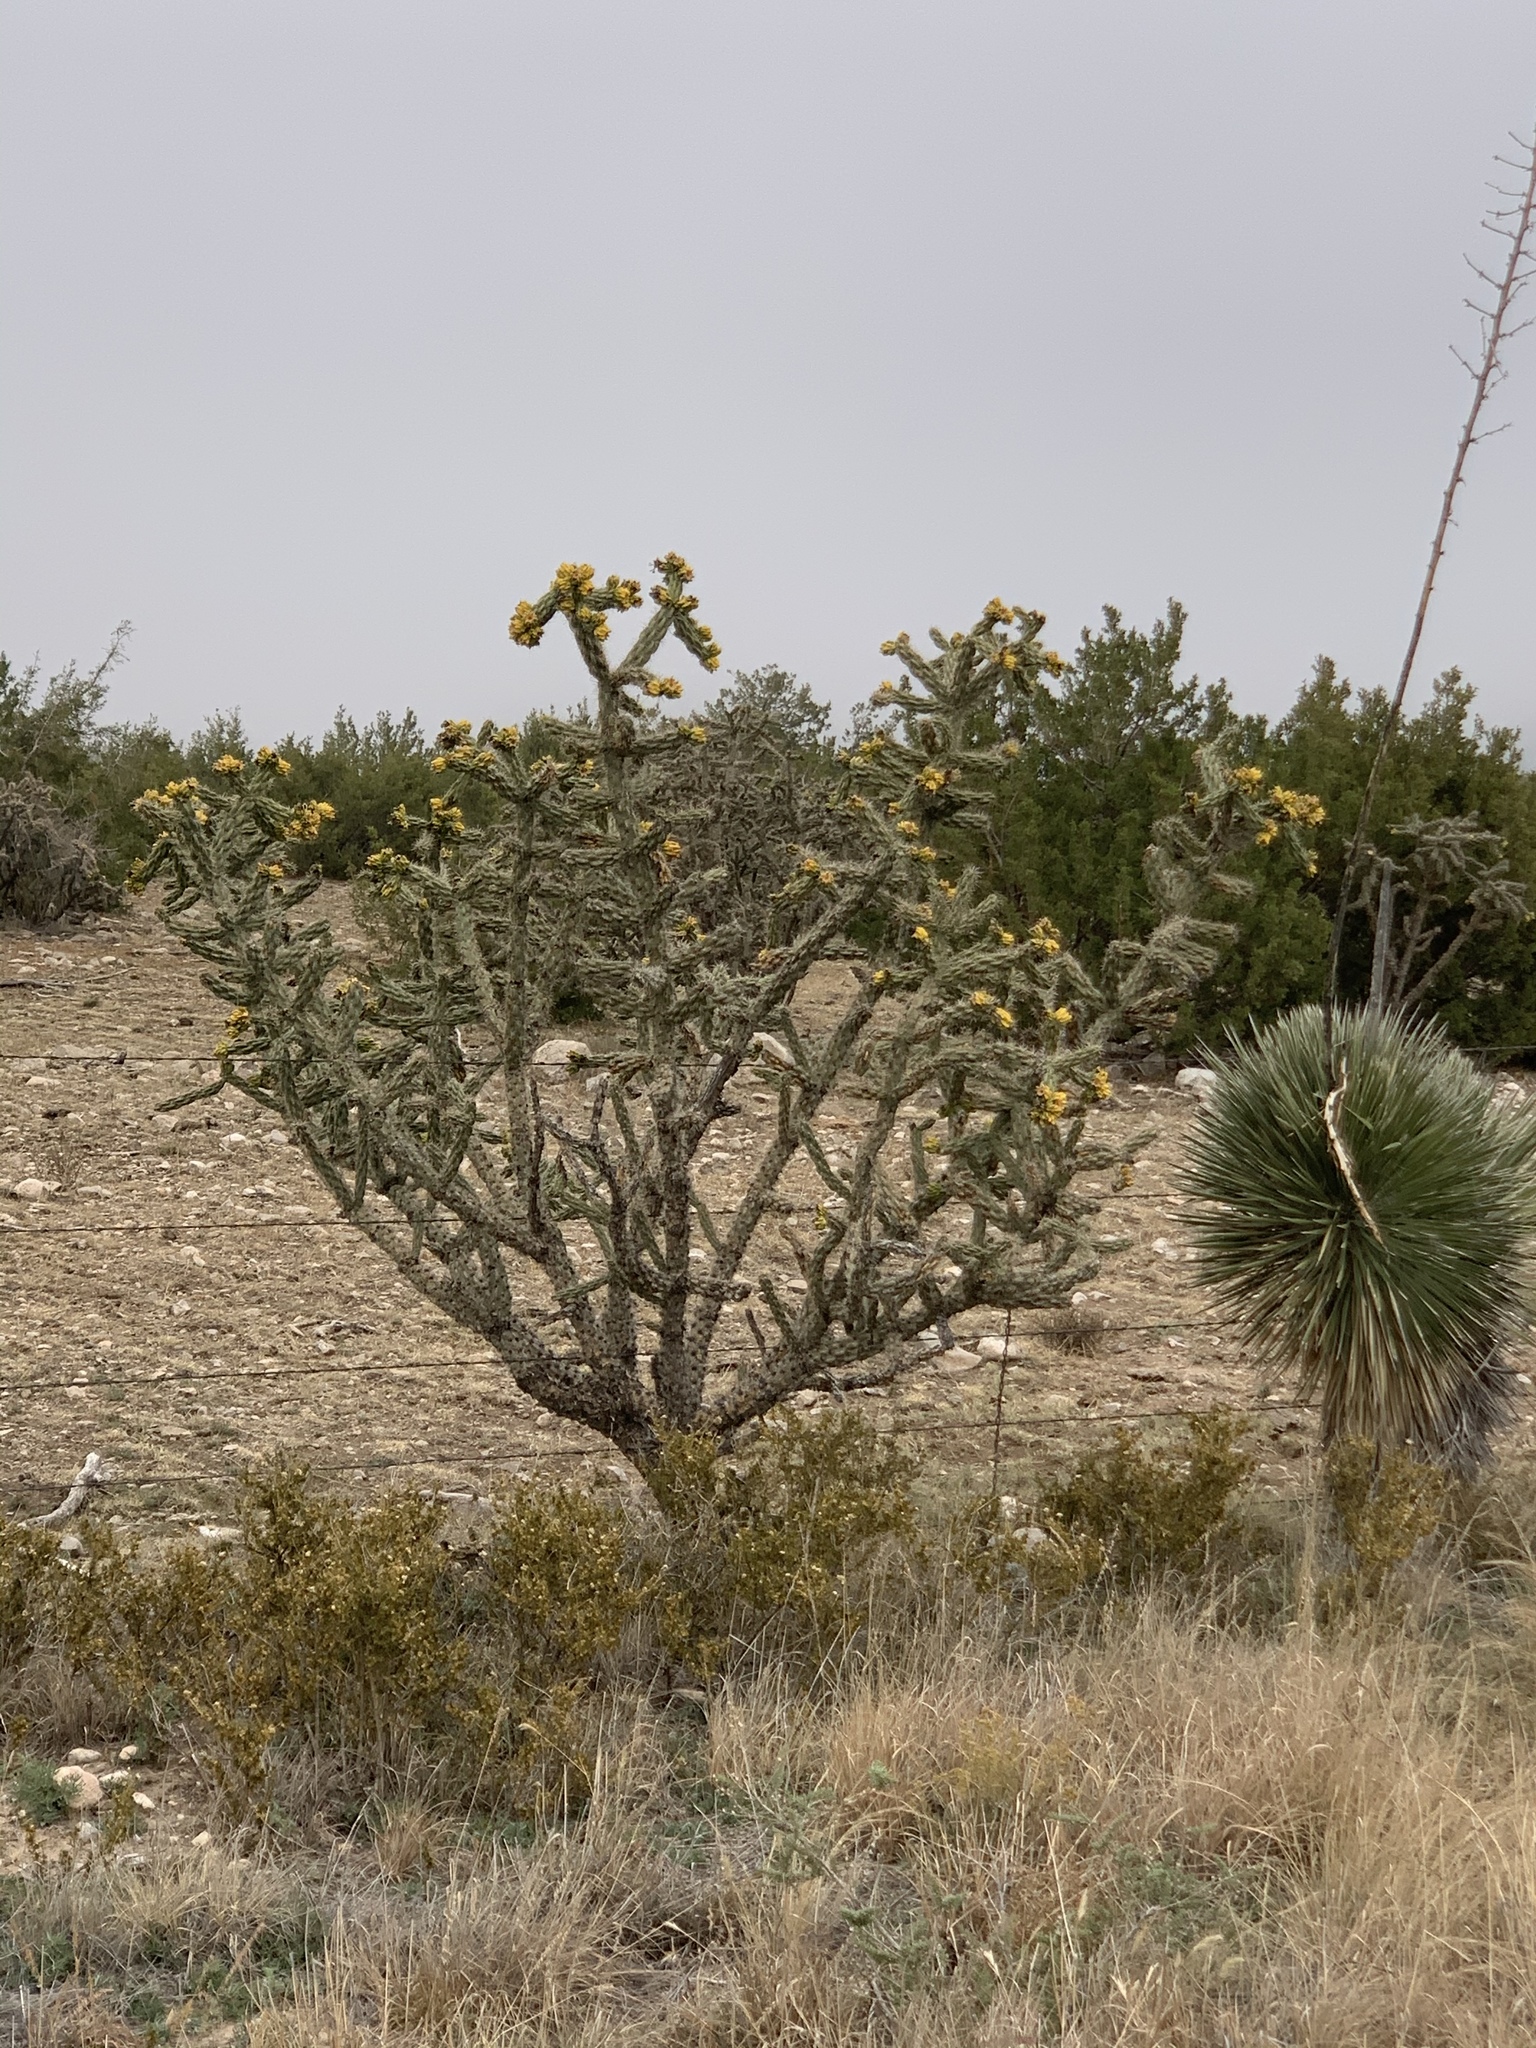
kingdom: Plantae
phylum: Tracheophyta
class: Magnoliopsida
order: Caryophyllales
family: Cactaceae
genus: Cylindropuntia
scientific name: Cylindropuntia imbricata
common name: Candelabrum cactus
